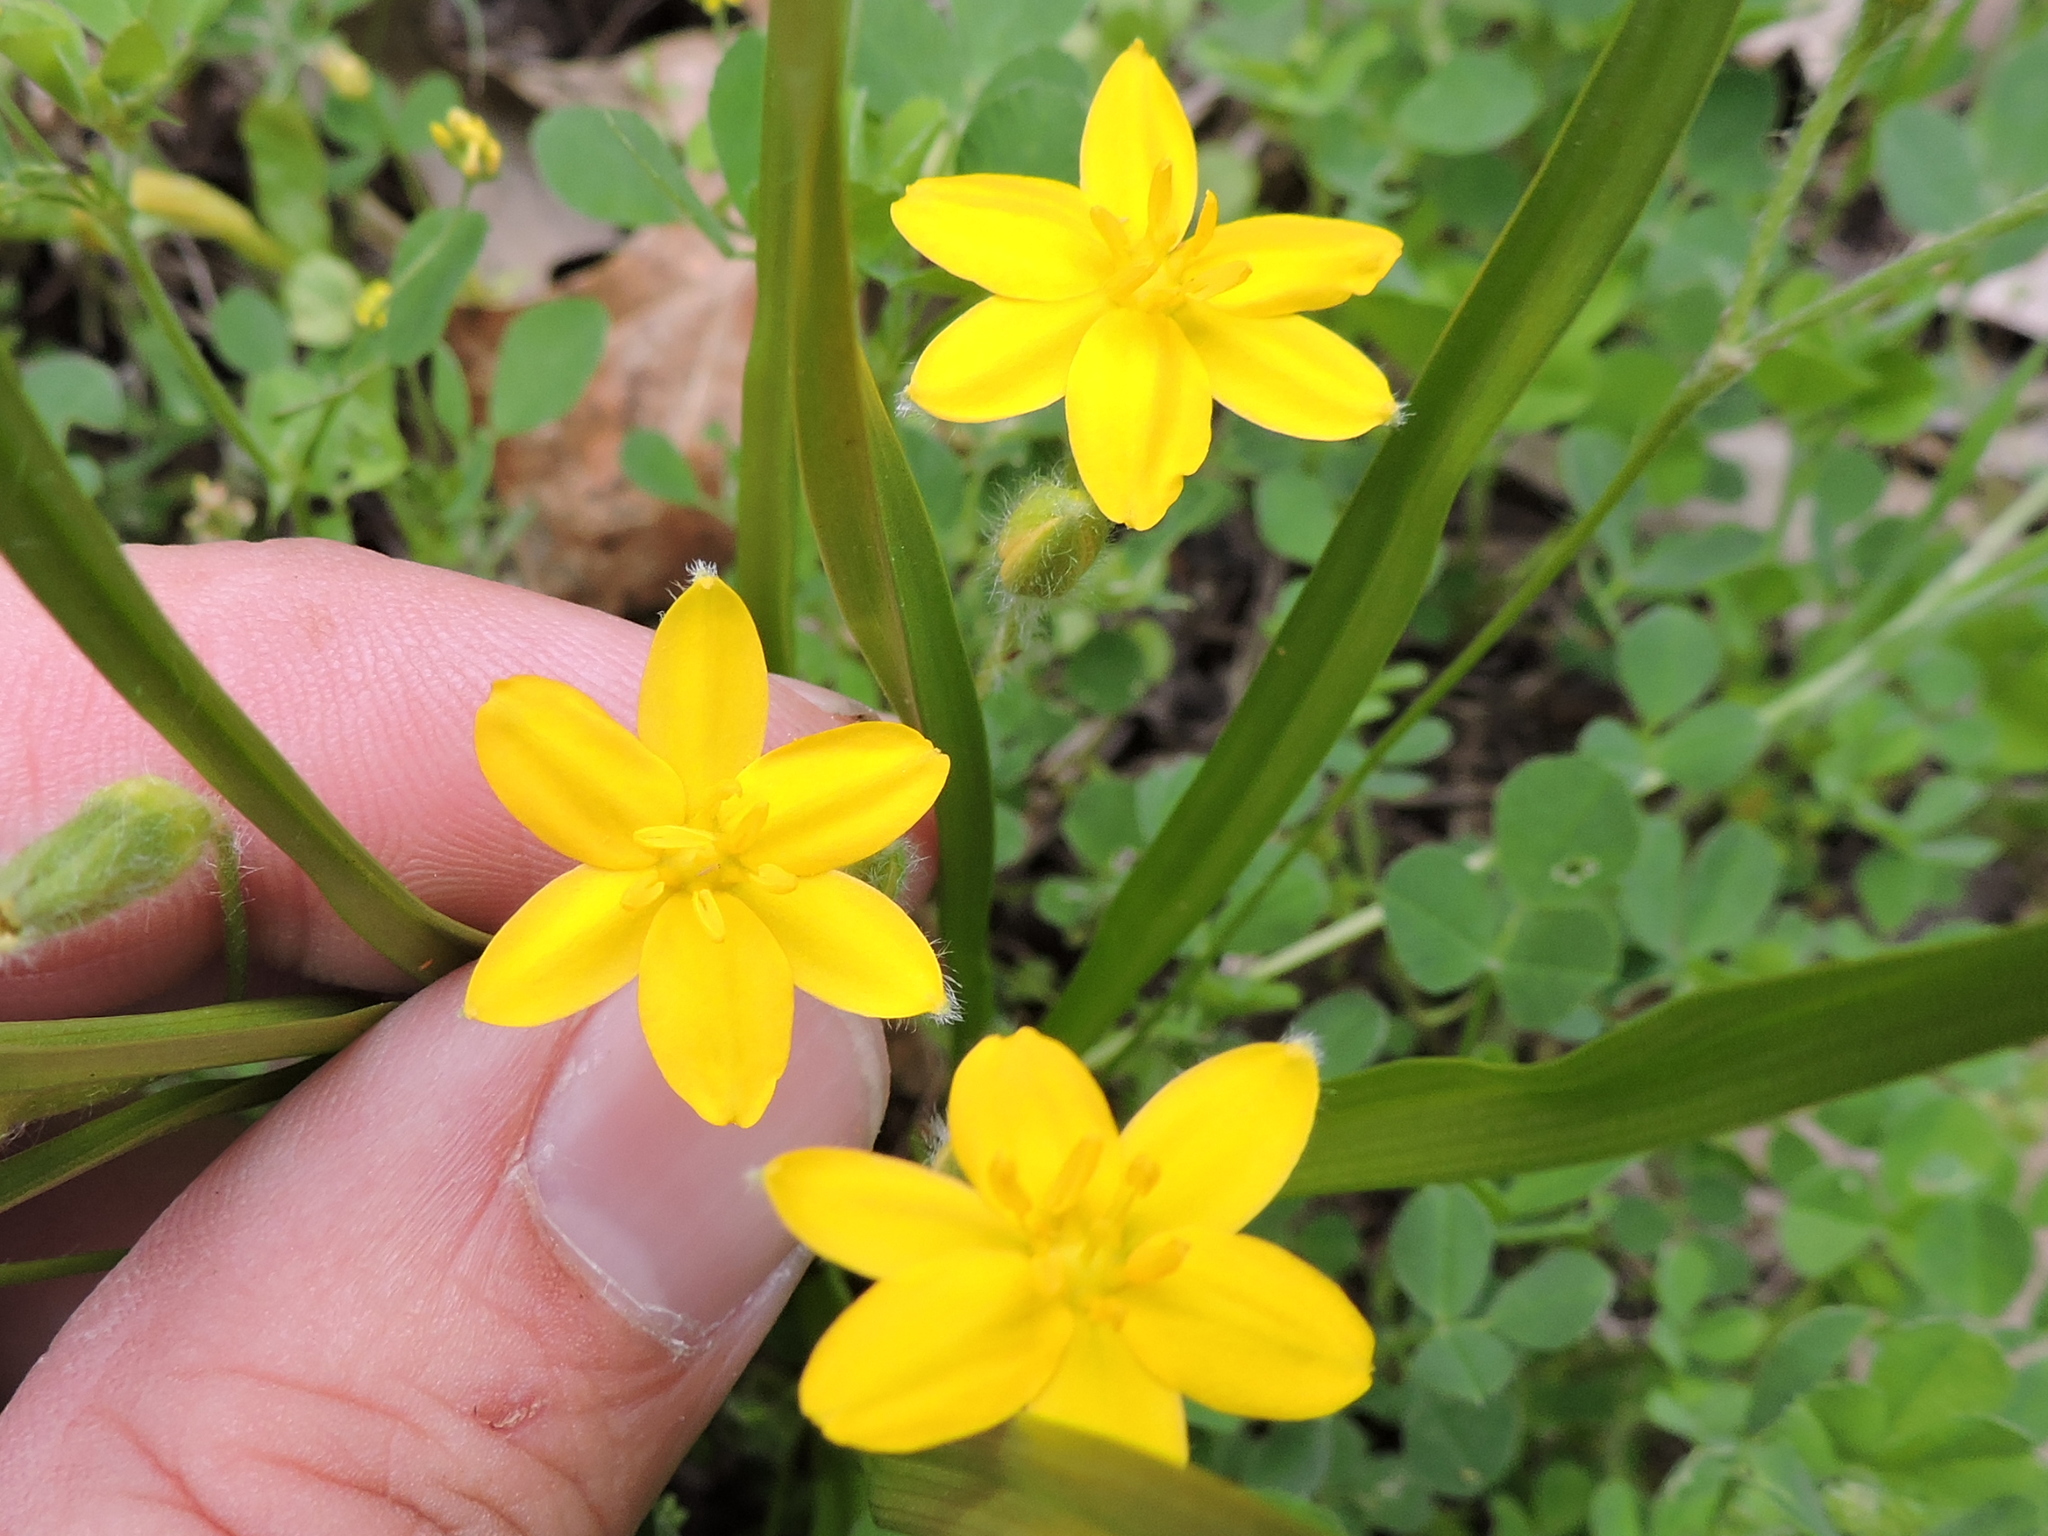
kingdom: Plantae
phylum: Tracheophyta
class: Liliopsida
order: Asparagales
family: Hypoxidaceae
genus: Hypoxis
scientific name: Hypoxis hirsuta
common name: Common goldstar
